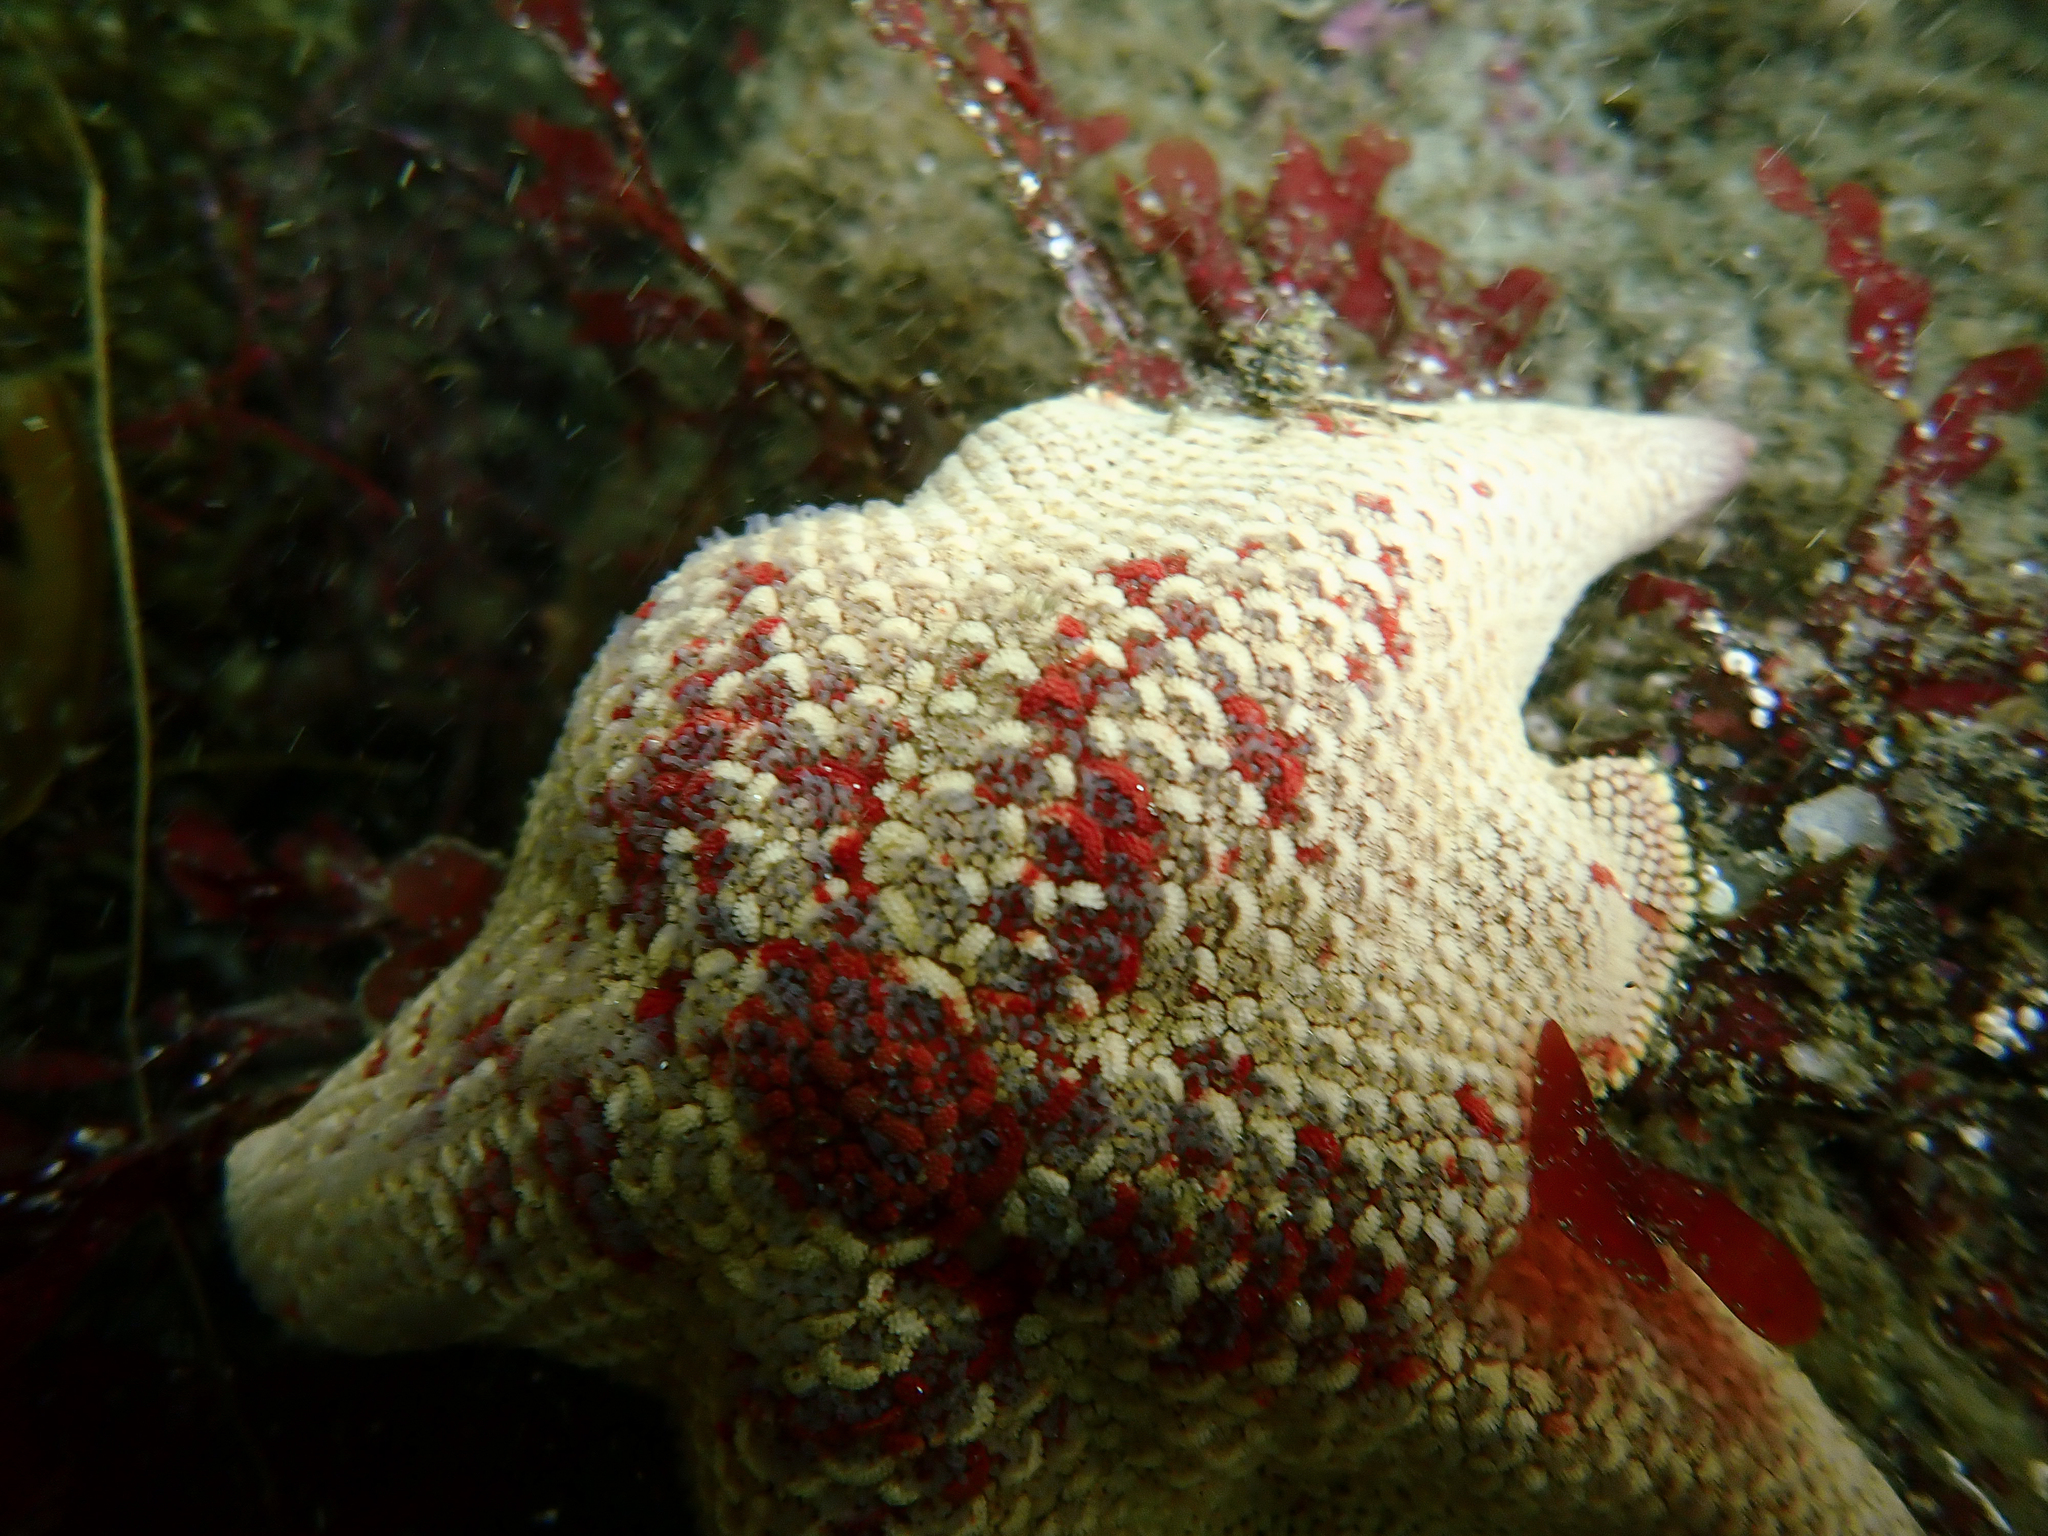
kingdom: Animalia
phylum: Echinodermata
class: Asteroidea
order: Valvatida
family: Asterinidae
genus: Patiria
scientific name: Patiria miniata
